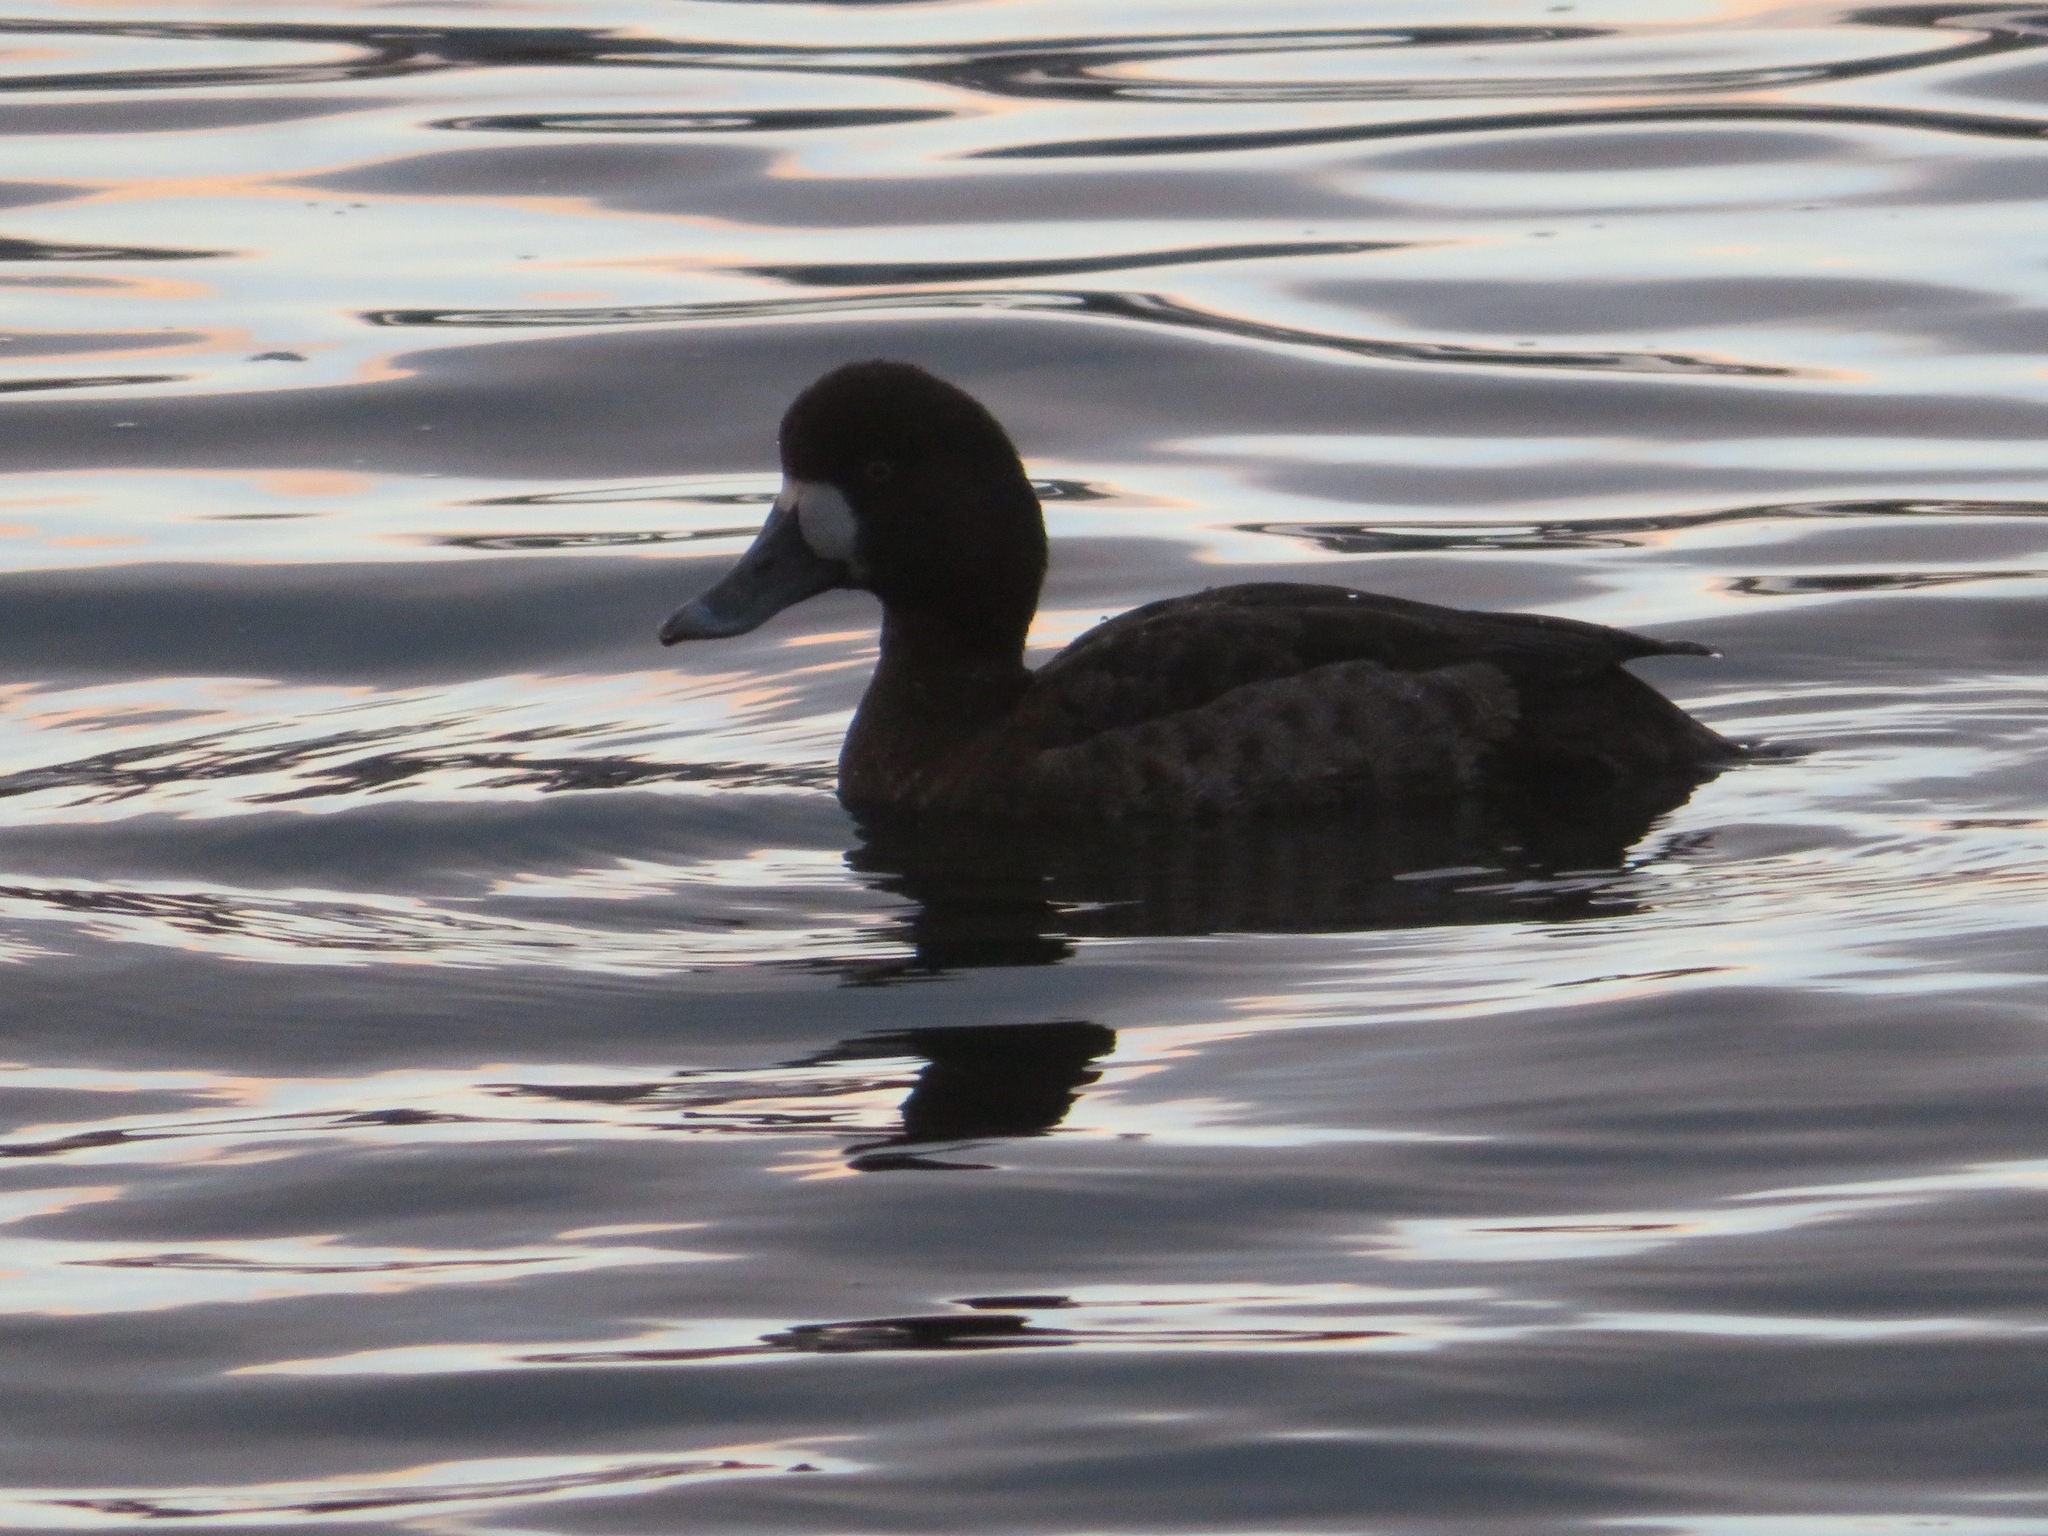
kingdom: Animalia
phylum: Chordata
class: Aves
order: Anseriformes
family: Anatidae
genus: Aythya
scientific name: Aythya marila
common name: Greater scaup
